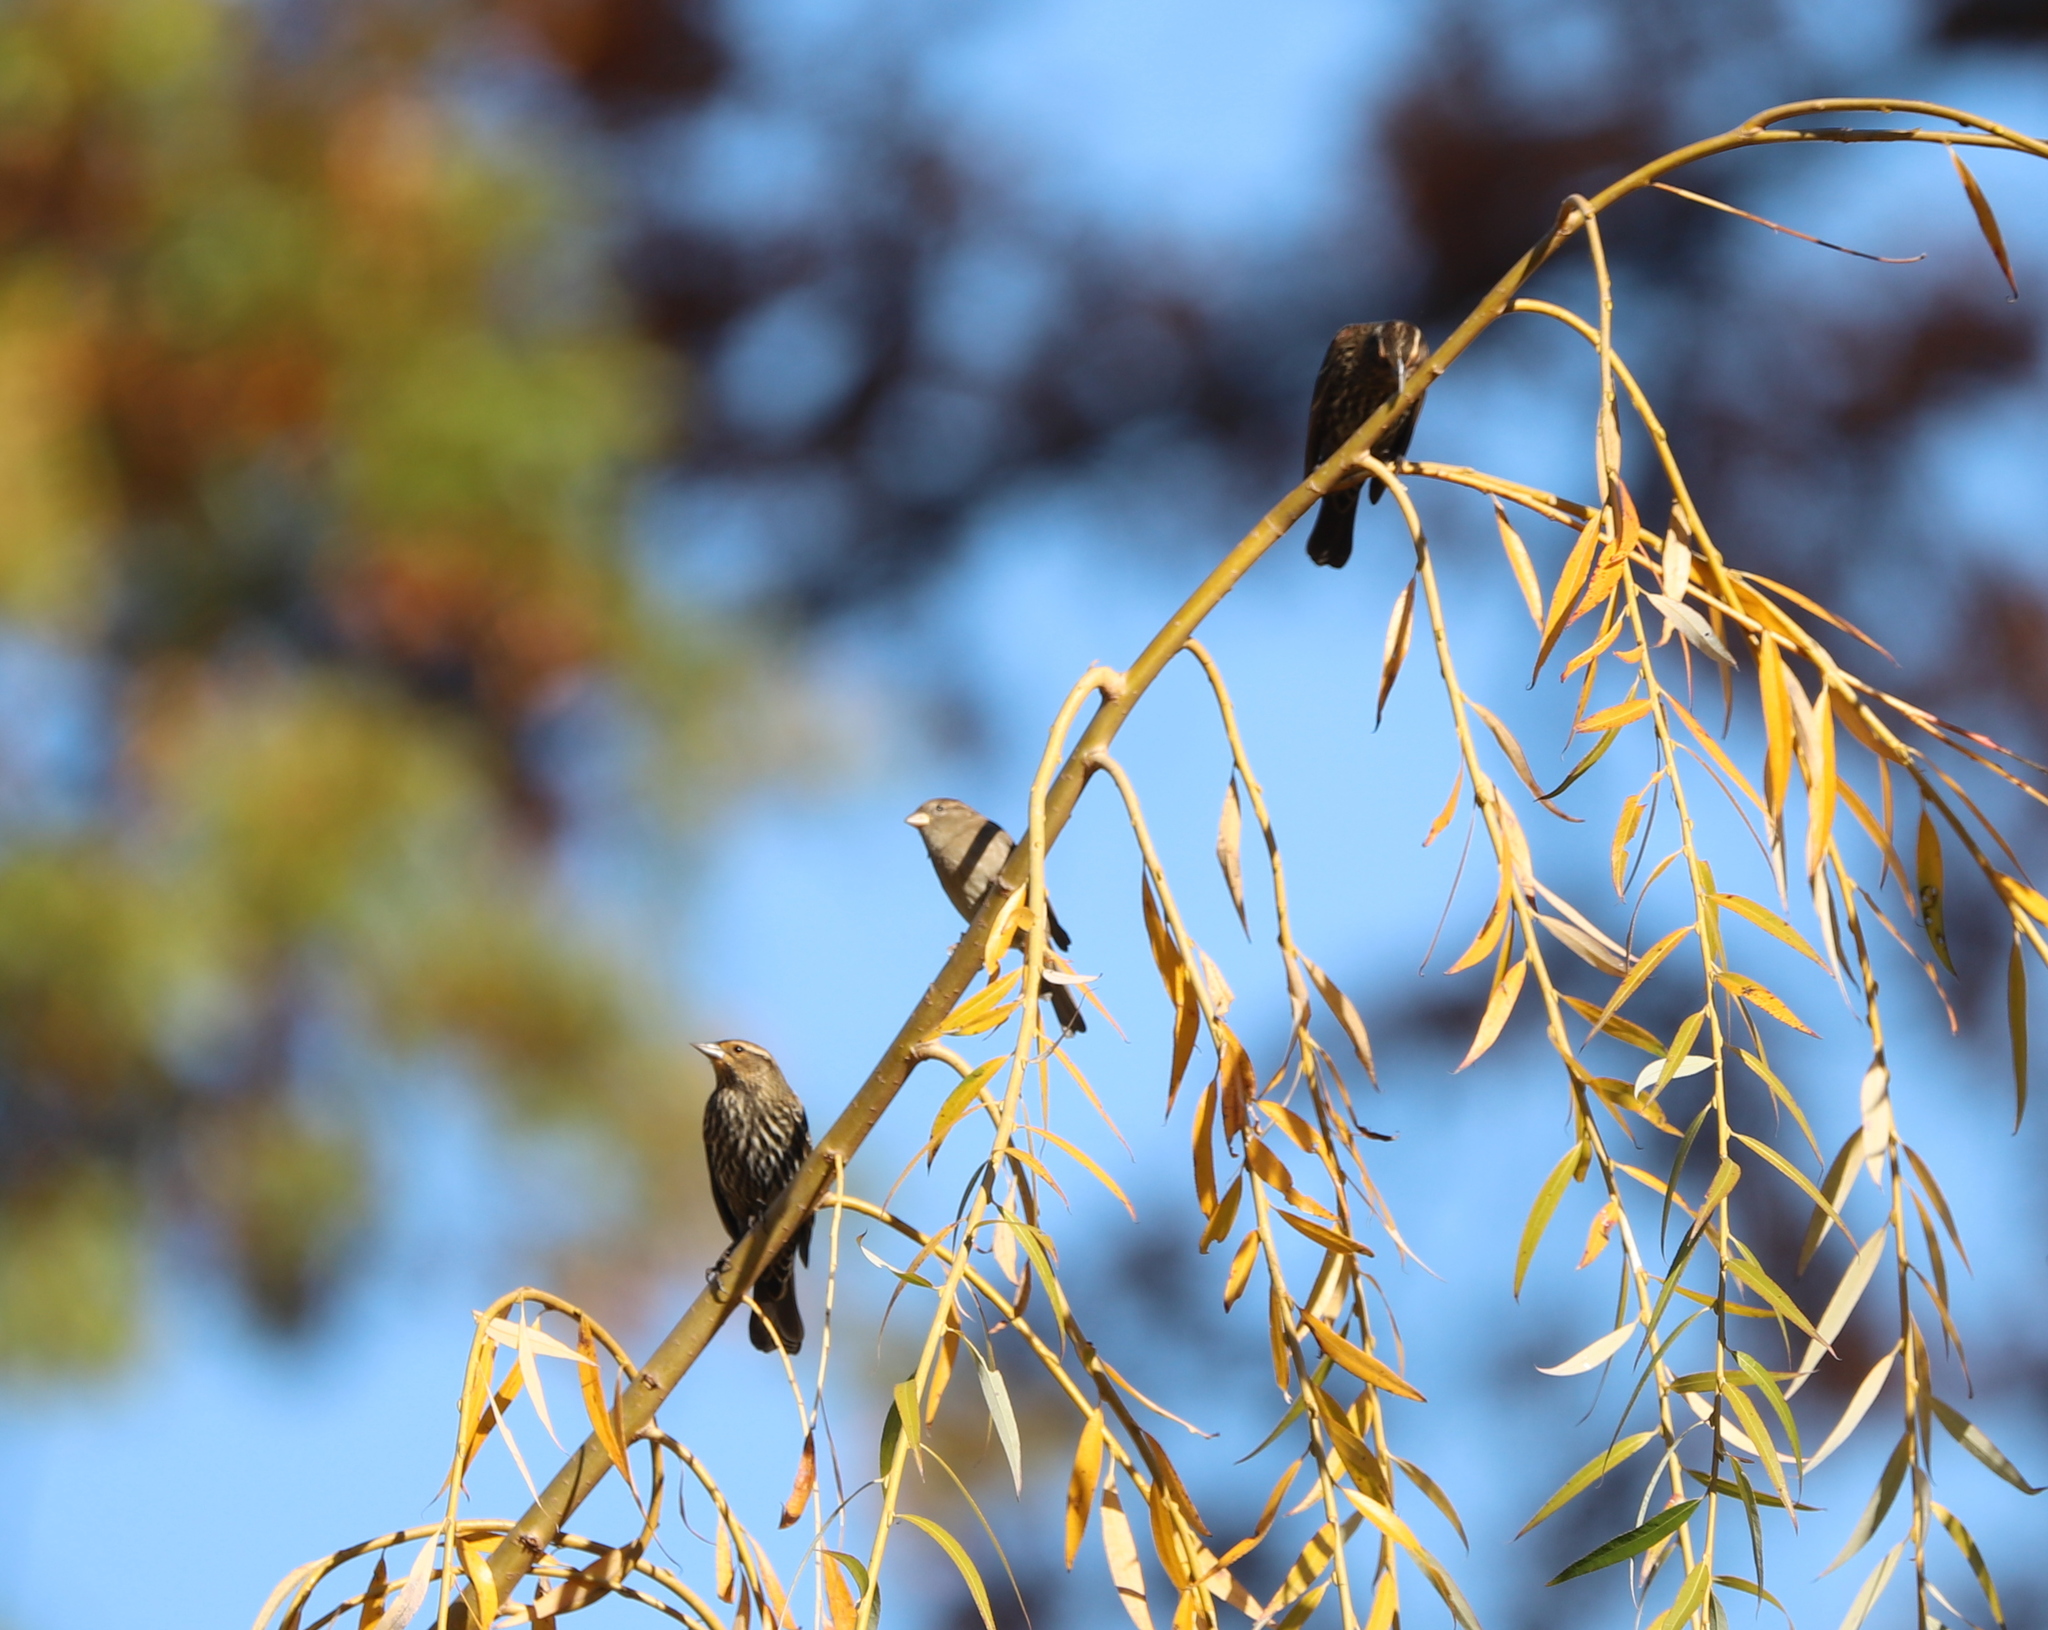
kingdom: Animalia
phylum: Chordata
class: Aves
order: Passeriformes
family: Passeridae
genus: Passer
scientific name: Passer domesticus
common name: House sparrow
